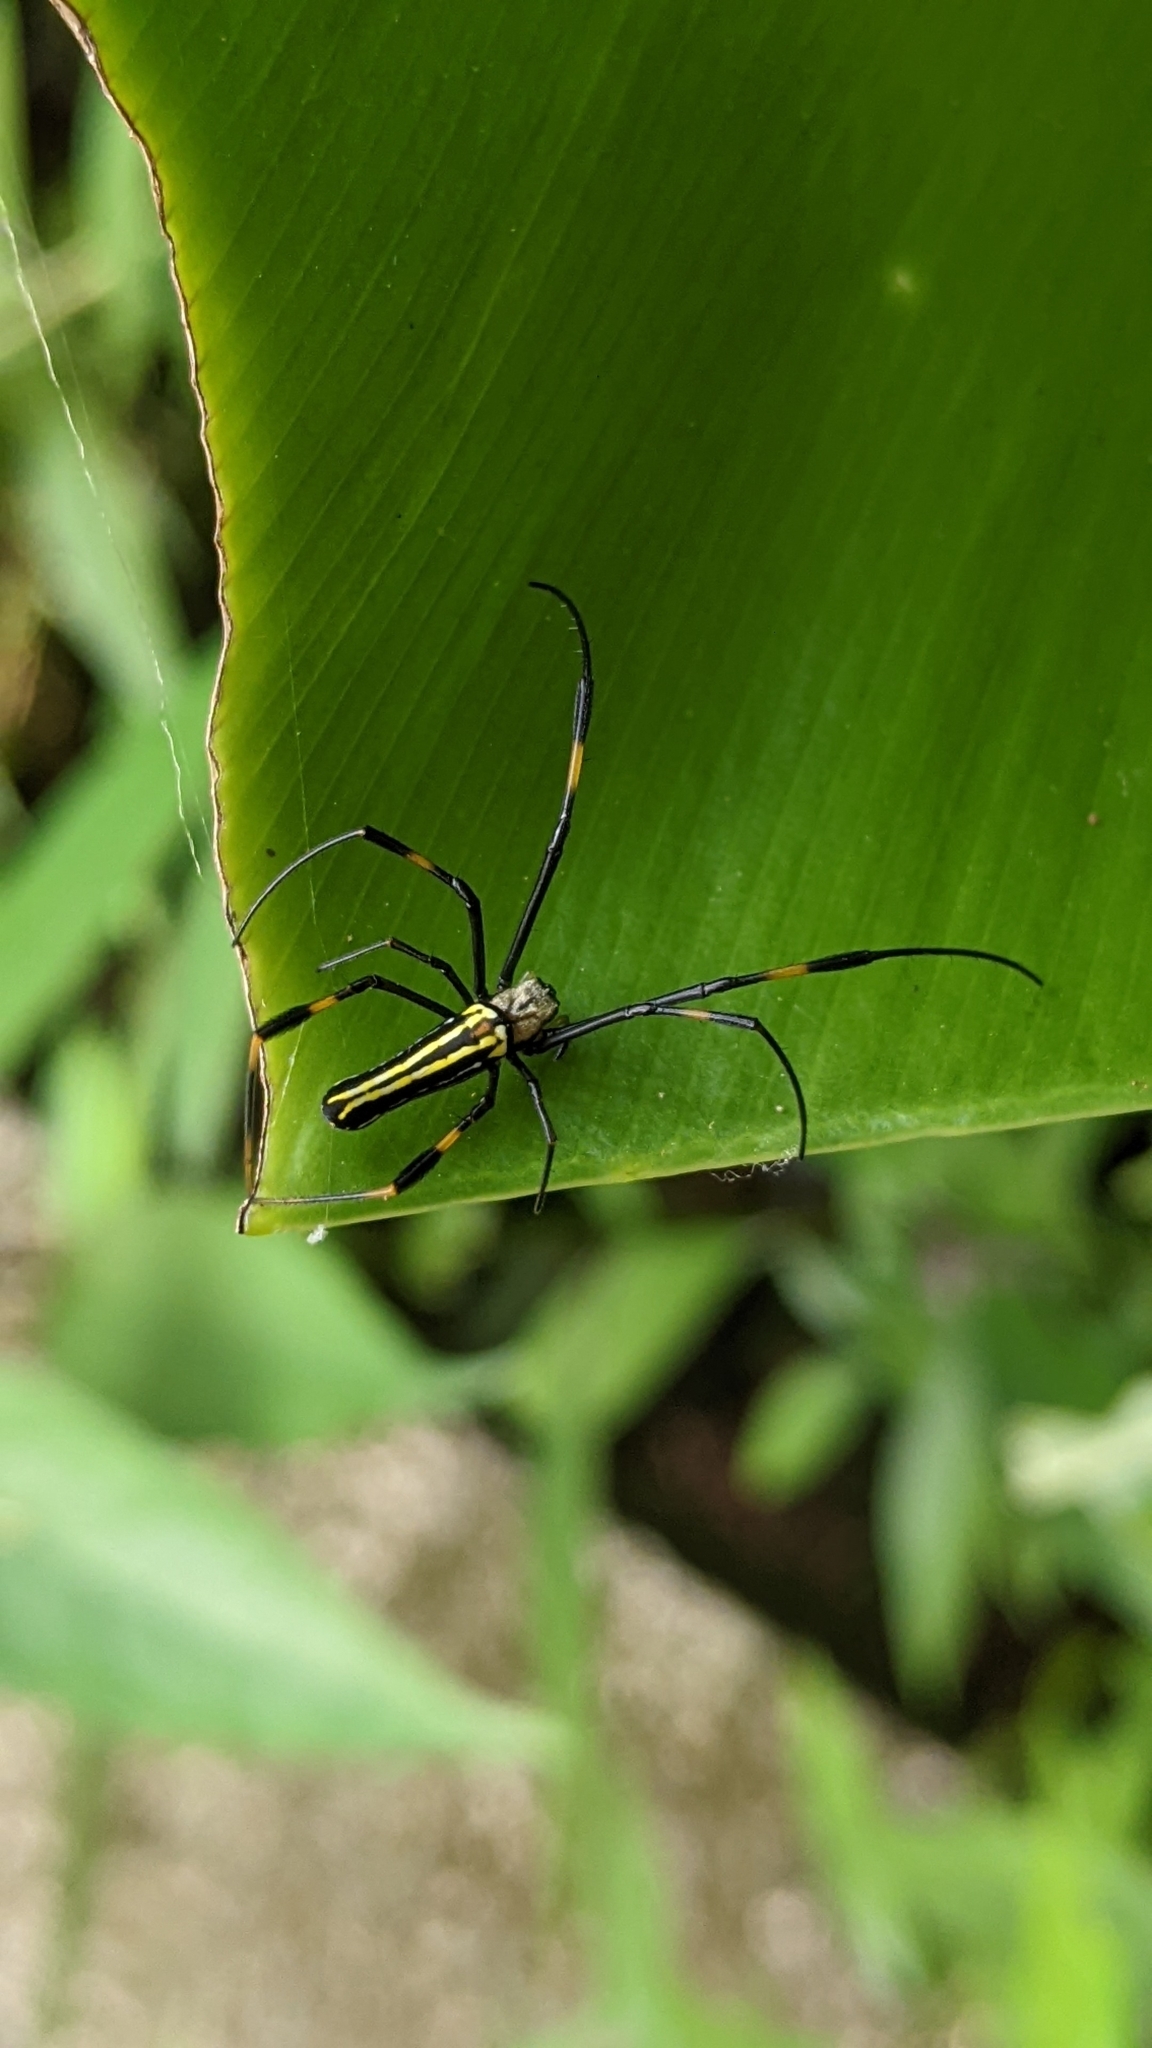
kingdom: Animalia
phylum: Arthropoda
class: Arachnida
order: Araneae
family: Araneidae
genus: Nephila
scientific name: Nephila pilipes
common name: Giant golden orb weaver
